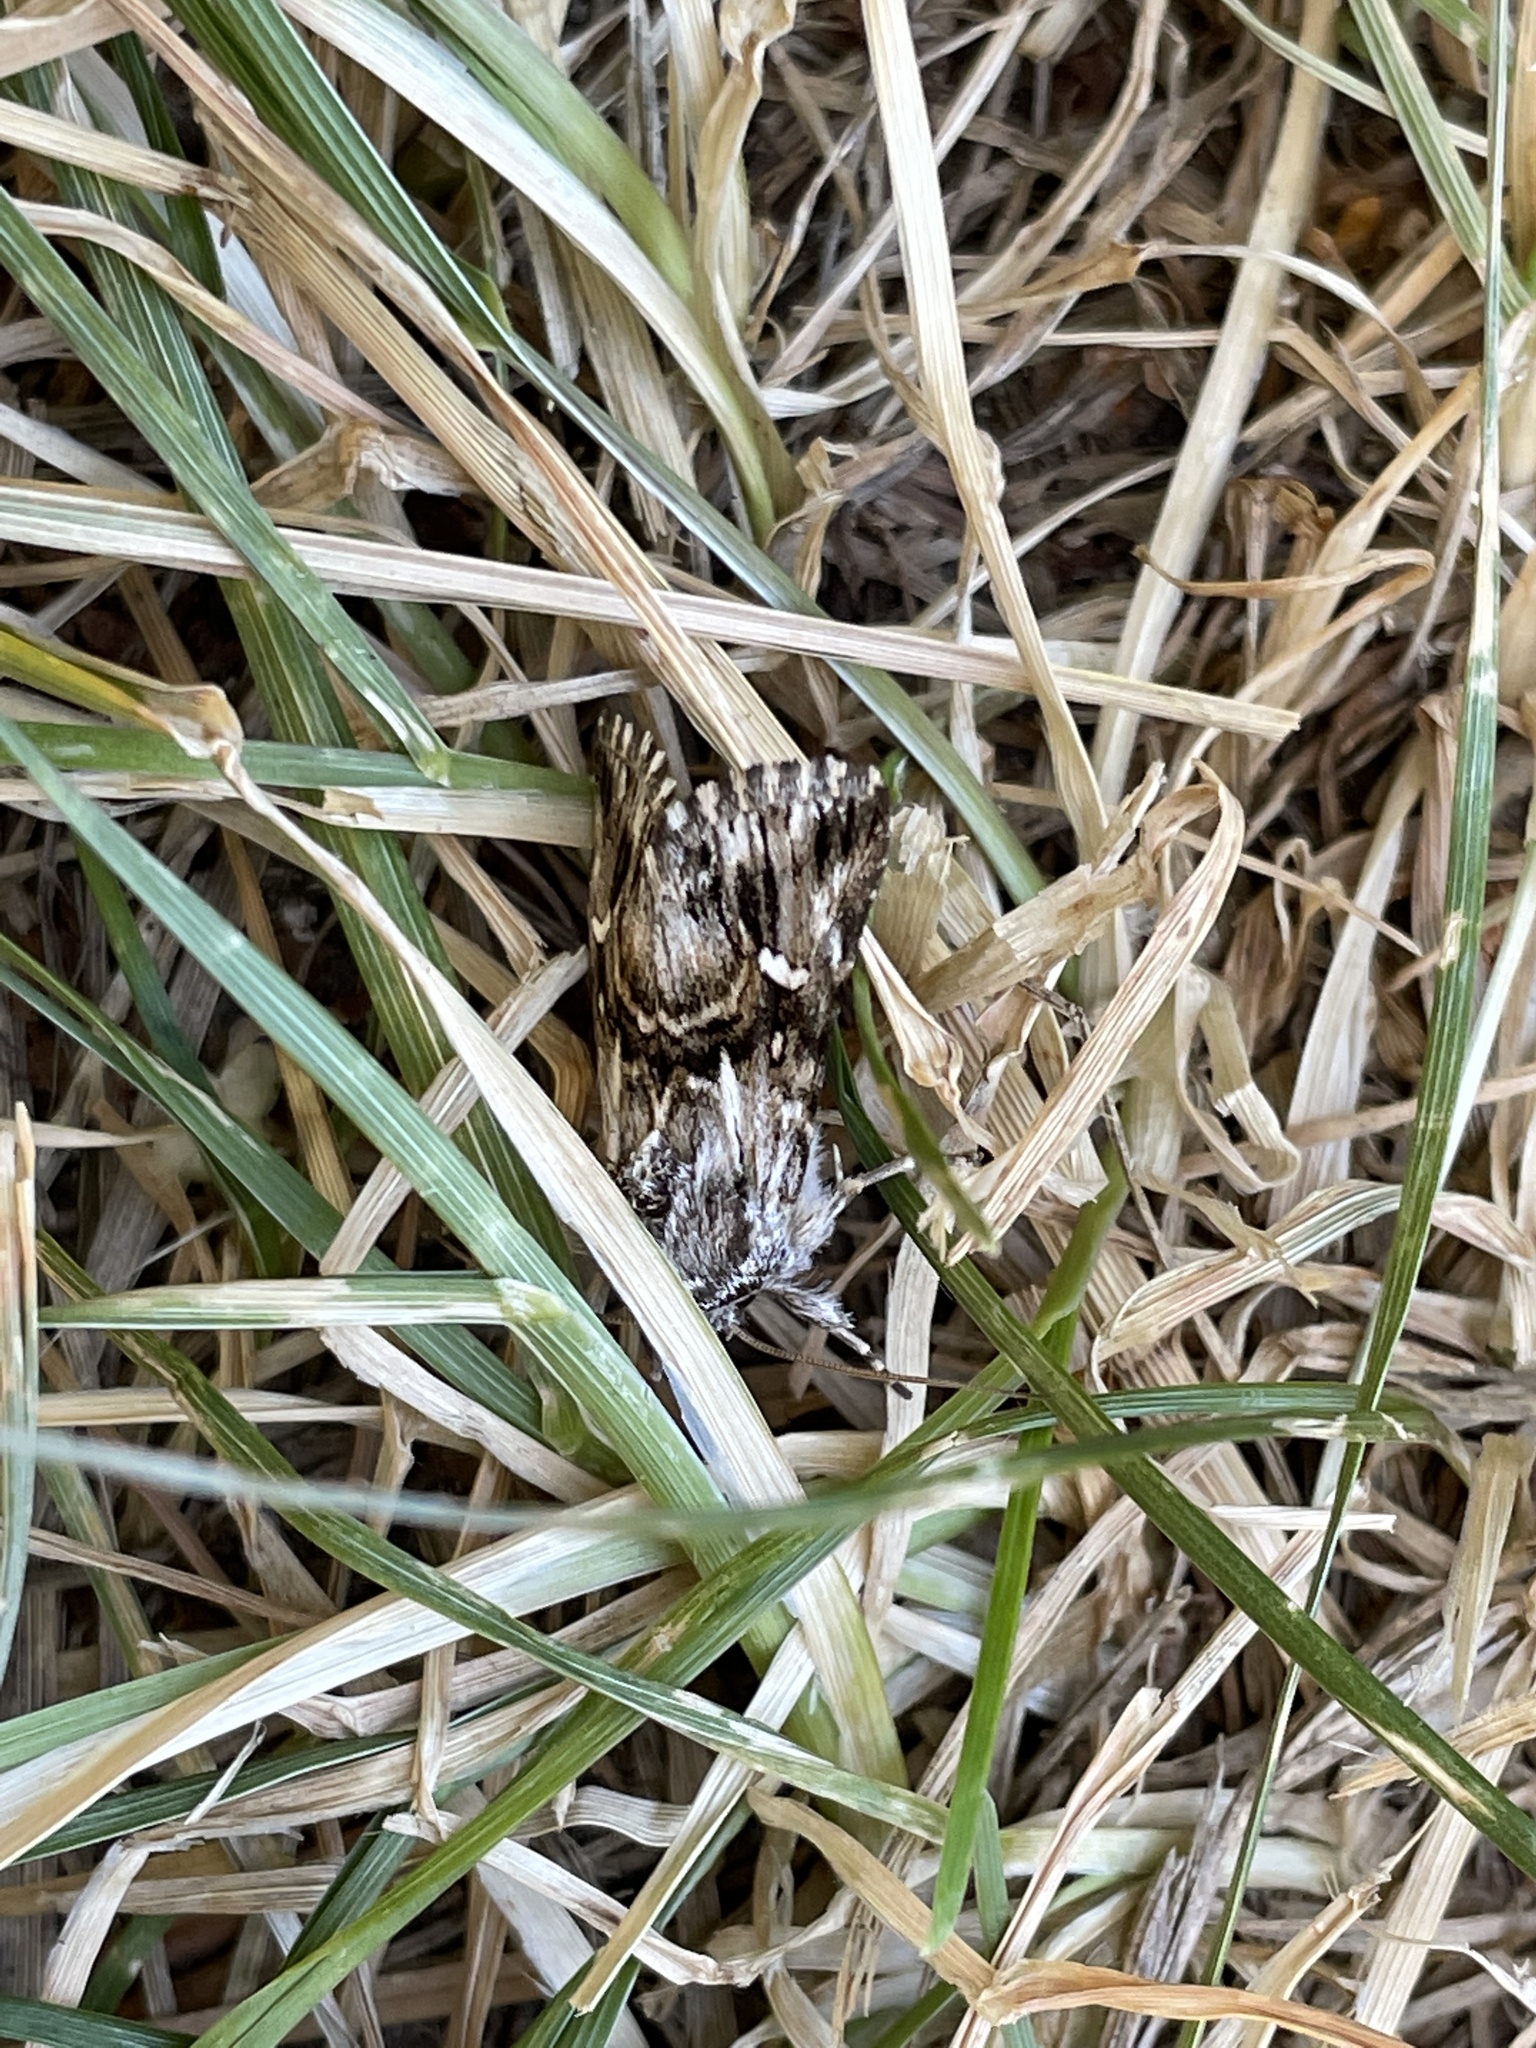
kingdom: Animalia
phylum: Arthropoda
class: Insecta
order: Lepidoptera
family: Noctuidae
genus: Calophasia
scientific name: Calophasia lunula
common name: Toadflax brocade
